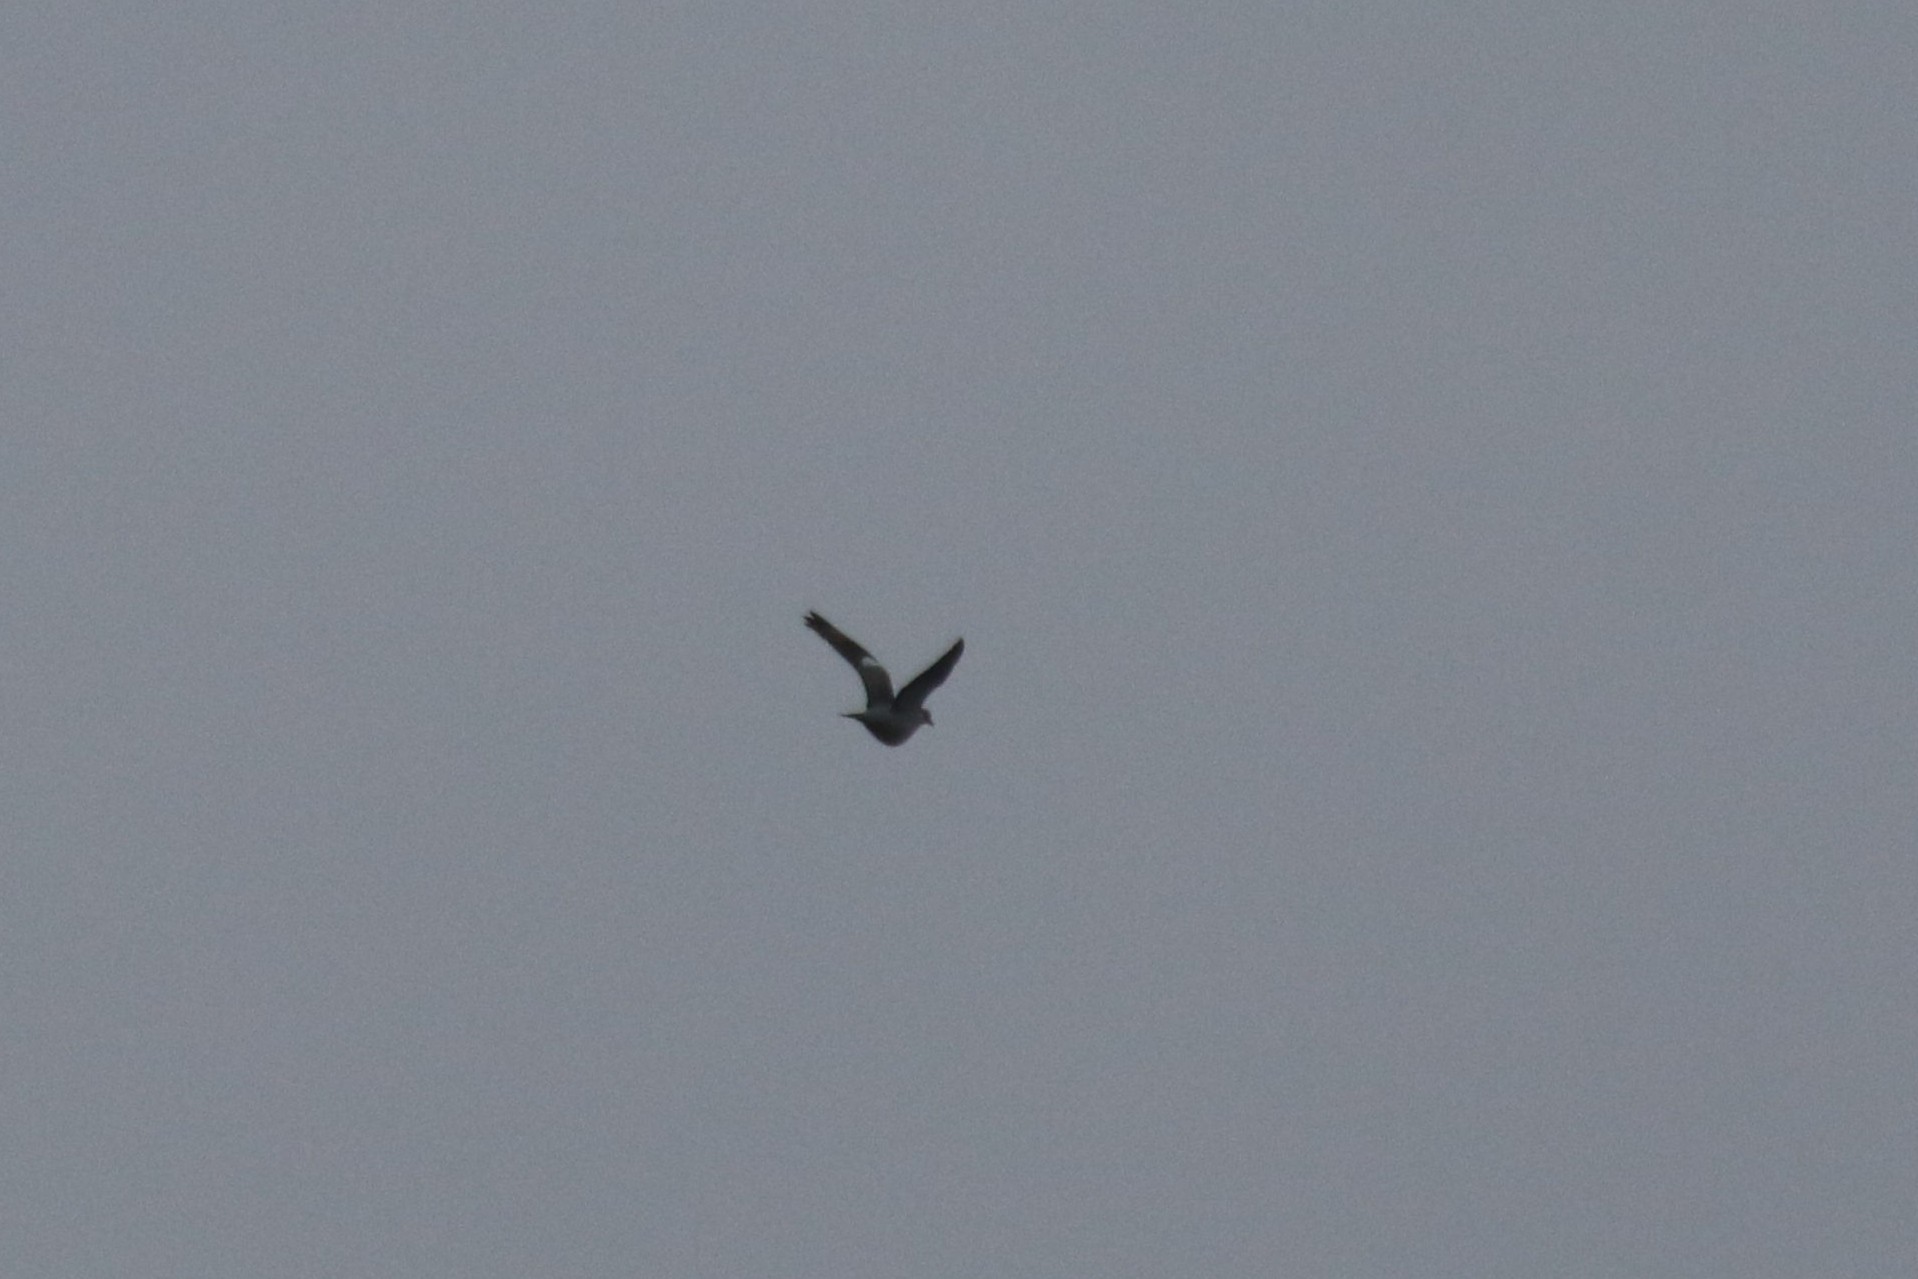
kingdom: Animalia
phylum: Chordata
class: Aves
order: Columbiformes
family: Columbidae
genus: Columba
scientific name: Columba palumbus
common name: Common wood pigeon
